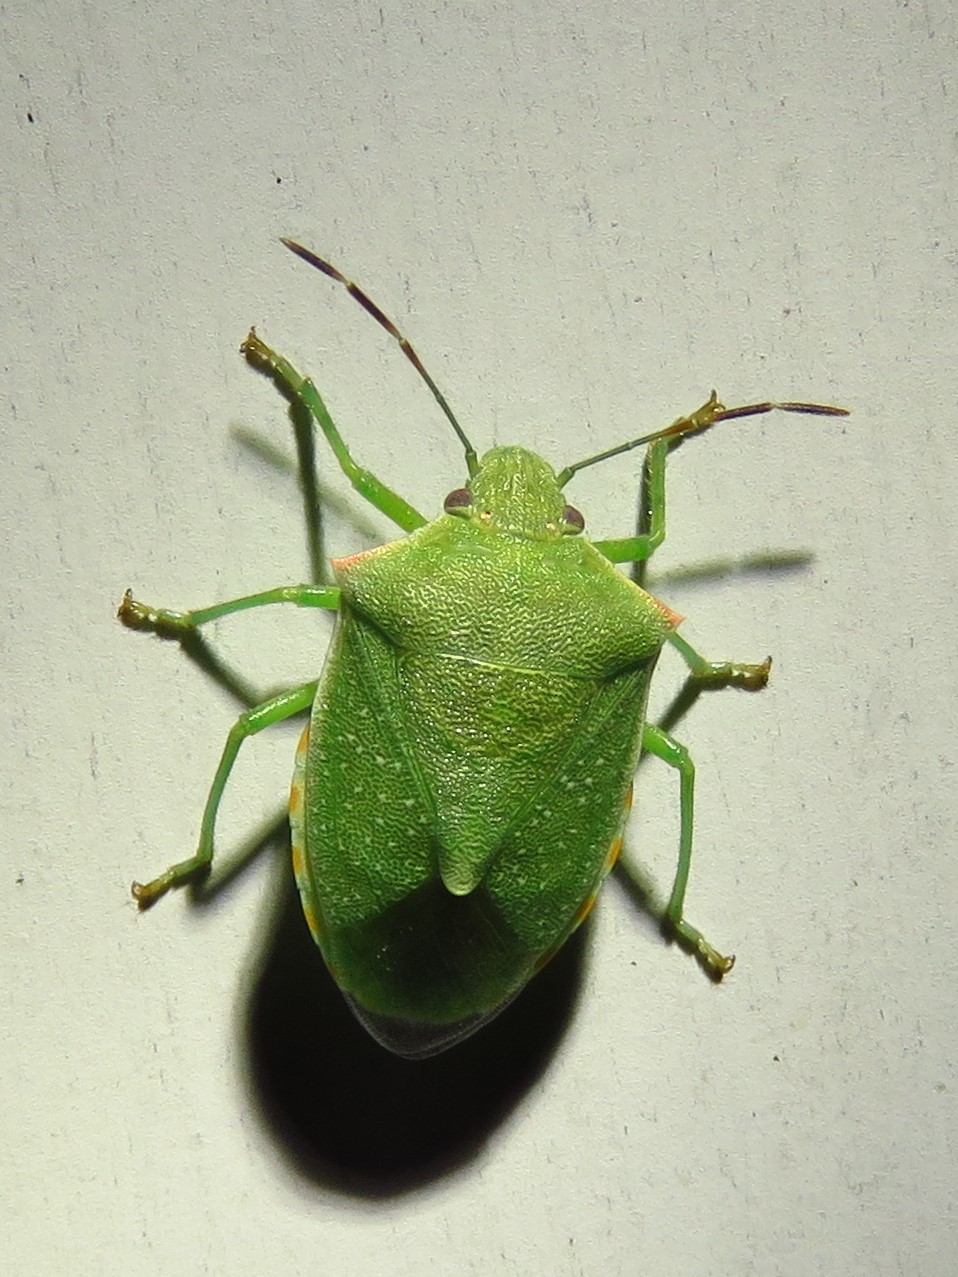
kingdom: Animalia
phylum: Arthropoda
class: Insecta
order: Hemiptera
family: Pentatomidae
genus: Thyanta
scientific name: Thyanta accerra
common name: Stink bug
